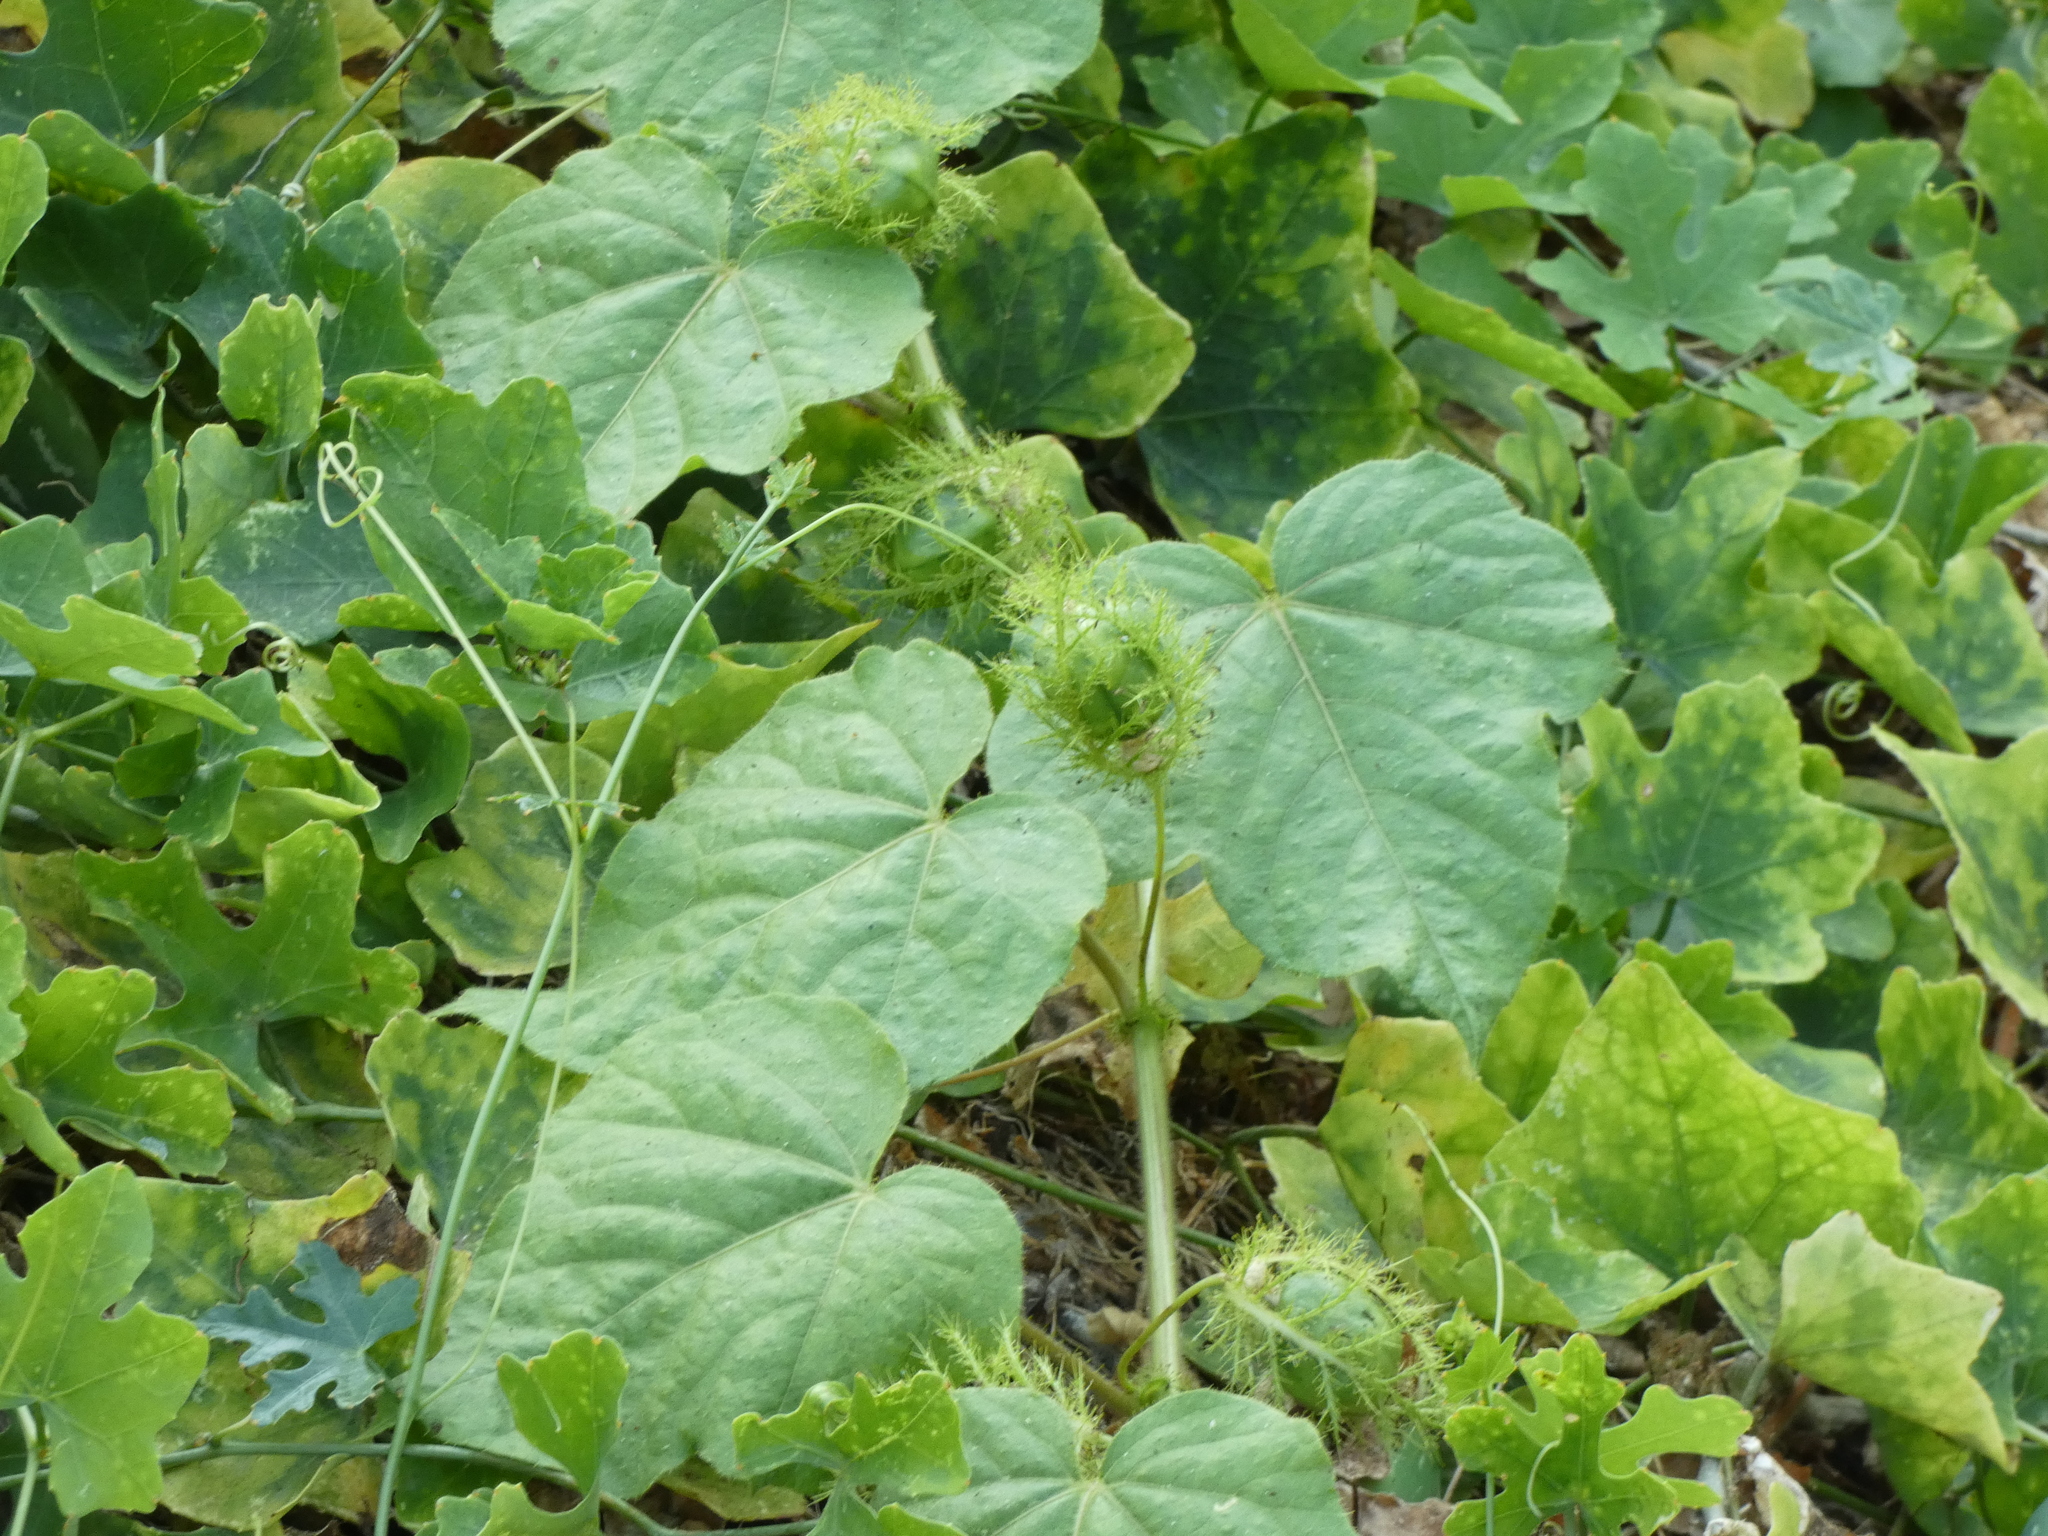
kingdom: Plantae
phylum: Tracheophyta
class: Magnoliopsida
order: Malpighiales
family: Passifloraceae
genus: Passiflora
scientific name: Passiflora vesicaria
